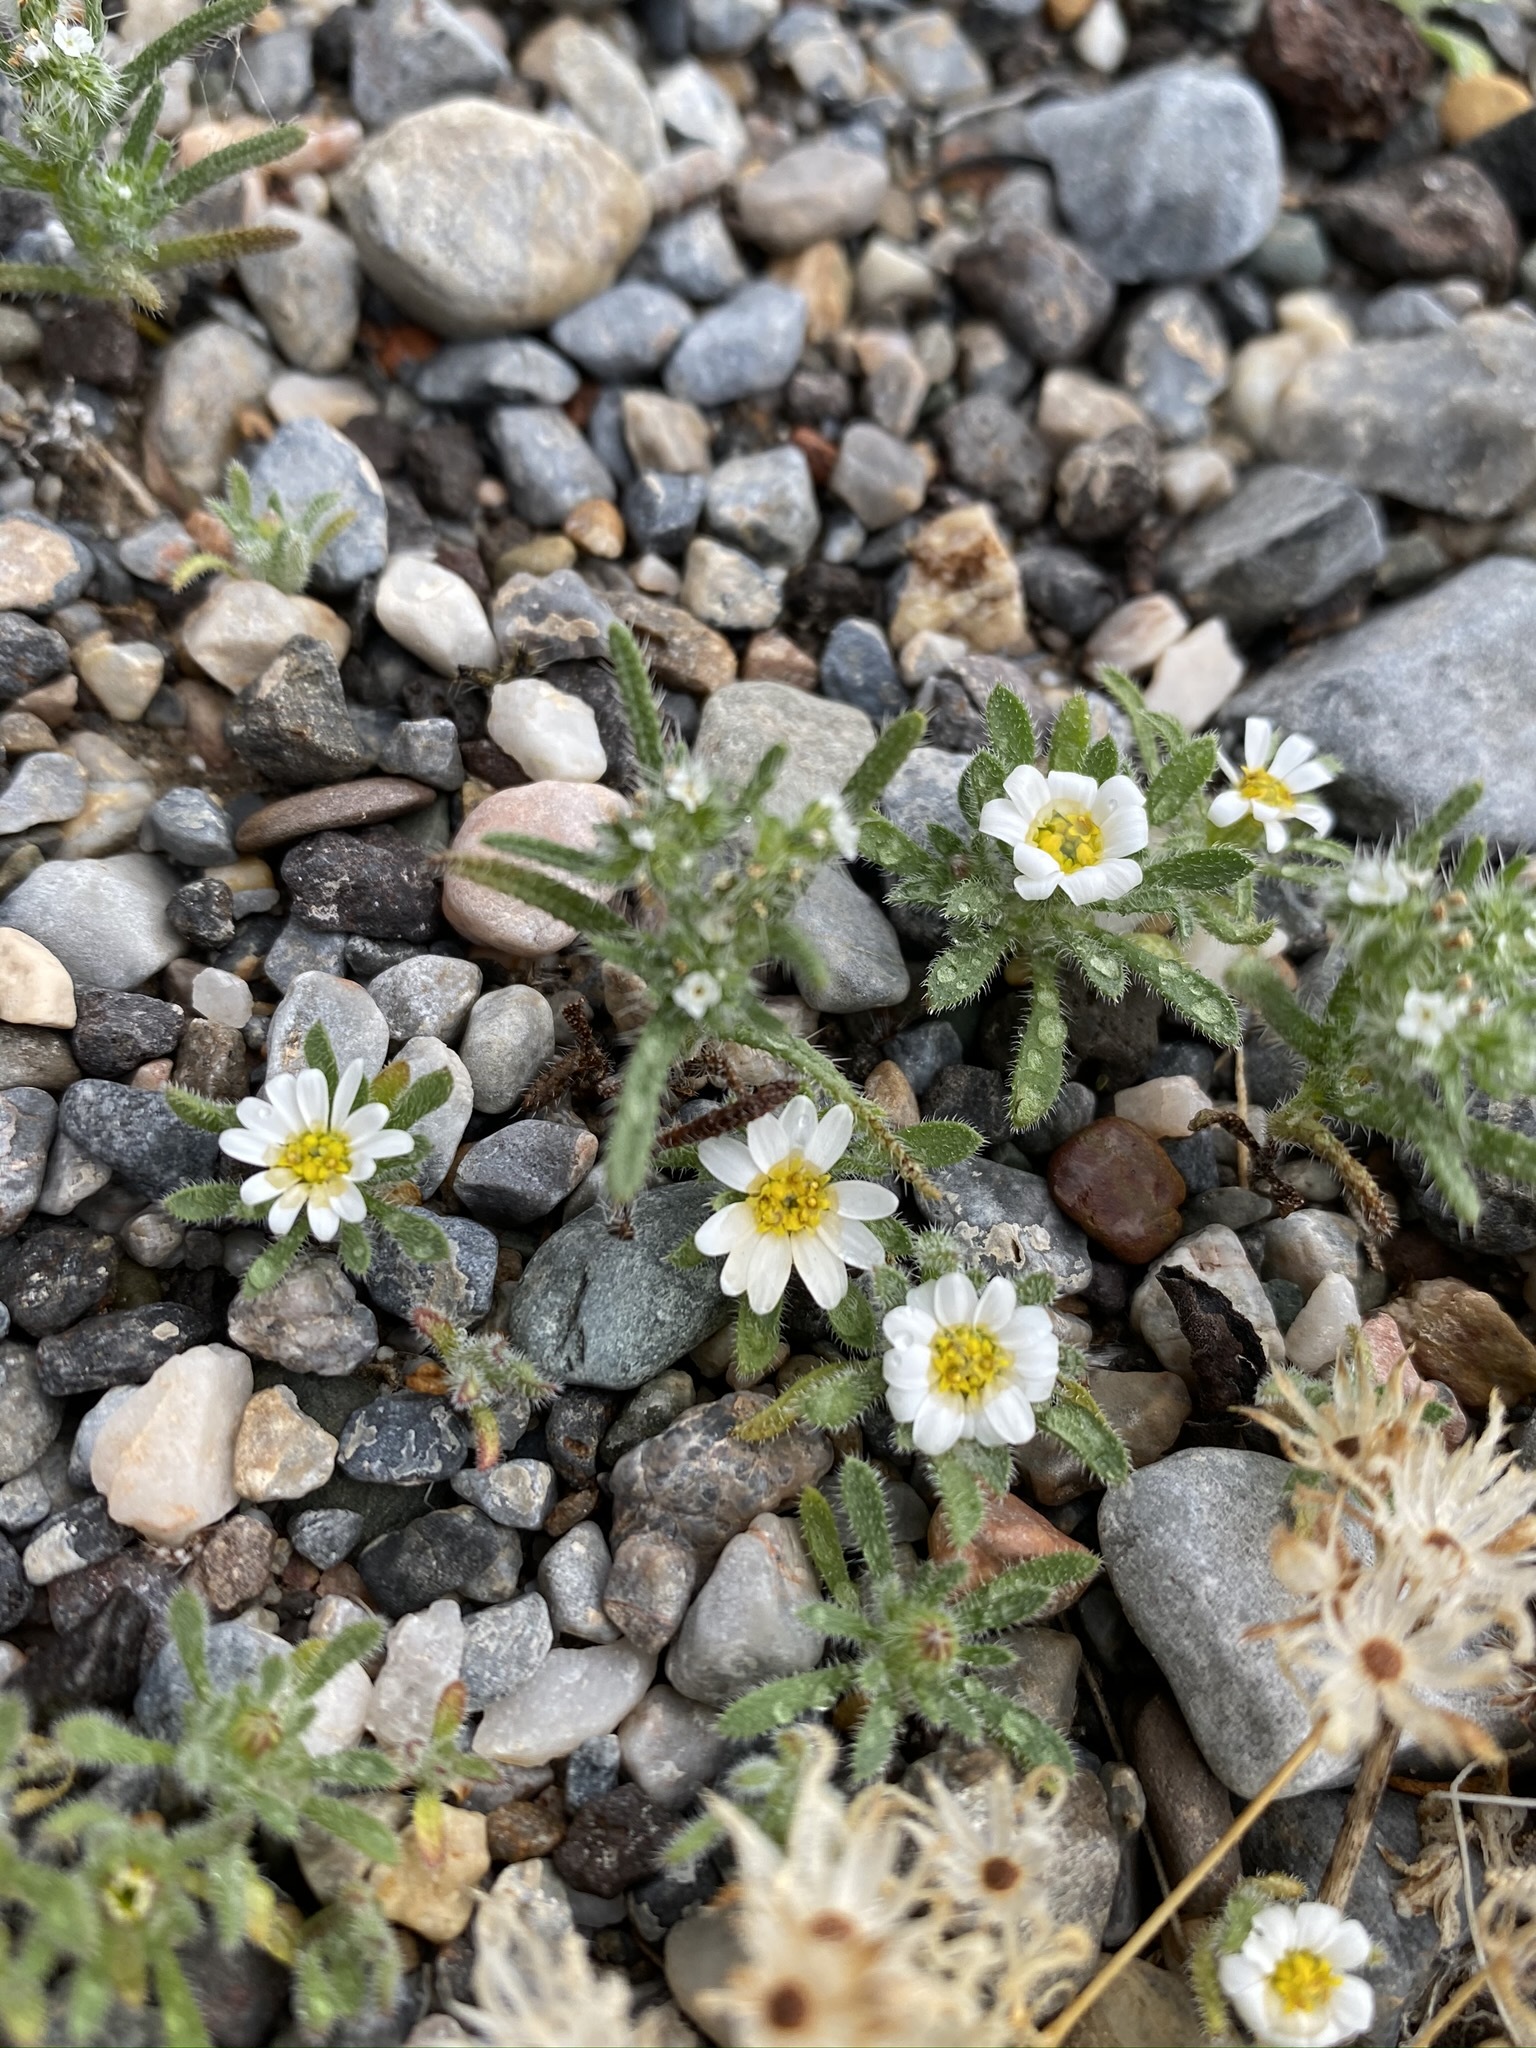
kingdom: Plantae
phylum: Tracheophyta
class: Magnoliopsida
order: Asterales
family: Asteraceae
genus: Monoptilon
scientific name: Monoptilon bellioides
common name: Bristly desertstar
